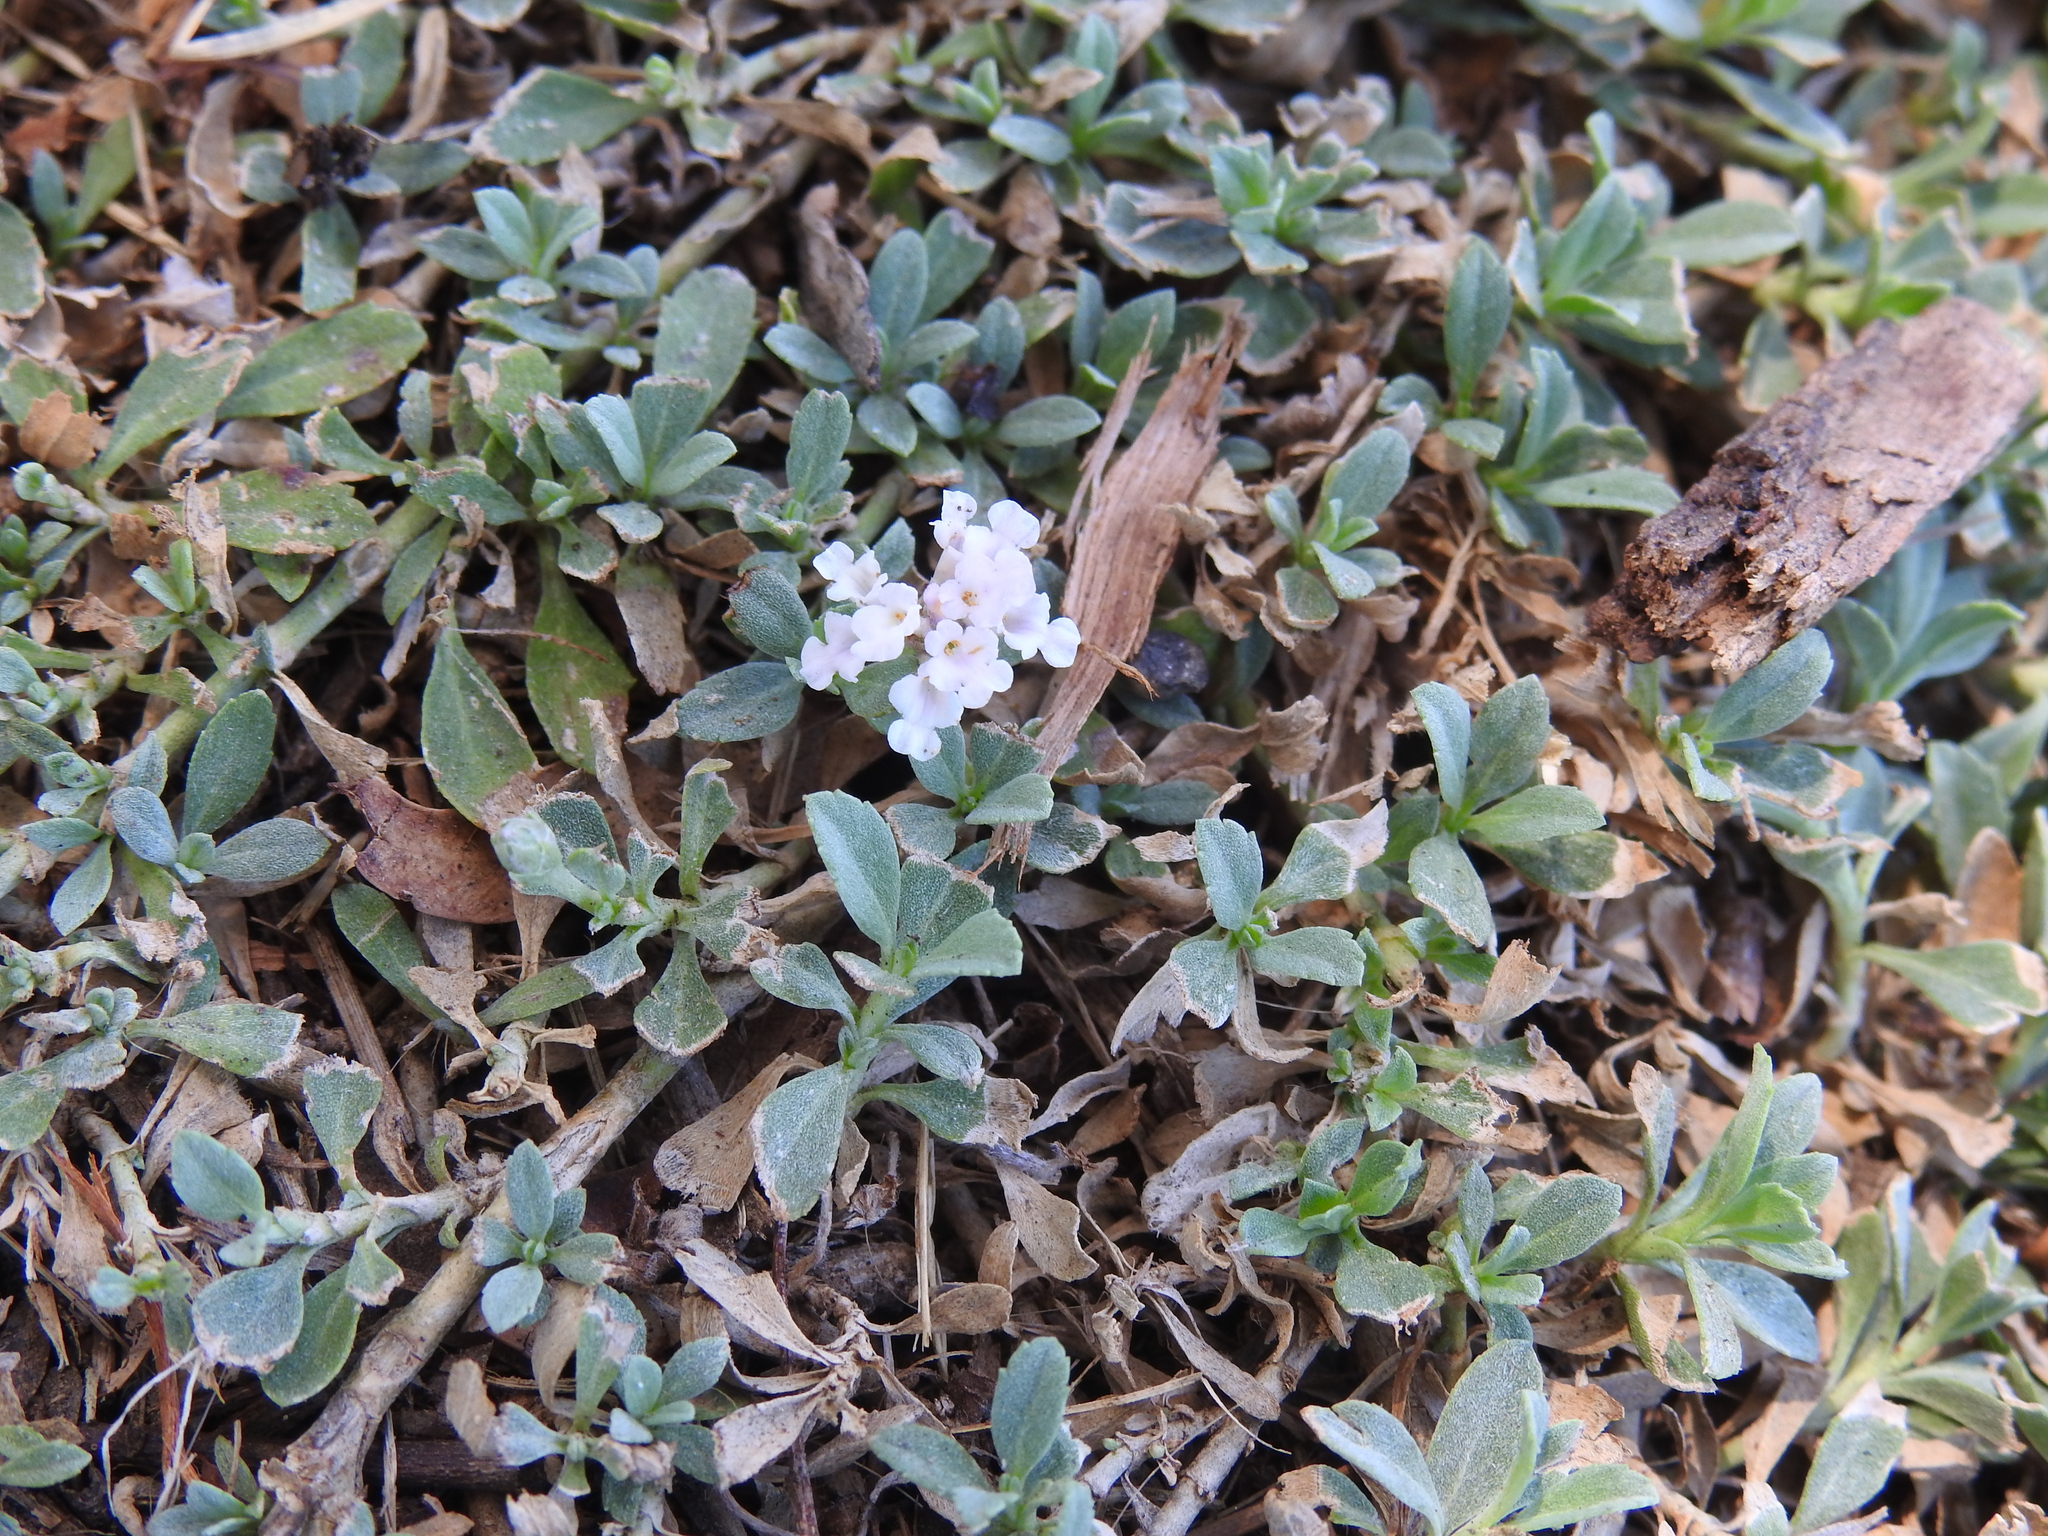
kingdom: Plantae
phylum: Tracheophyta
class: Magnoliopsida
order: Lamiales
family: Verbenaceae
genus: Phyla
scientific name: Phyla nodiflora
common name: Frogfruit
